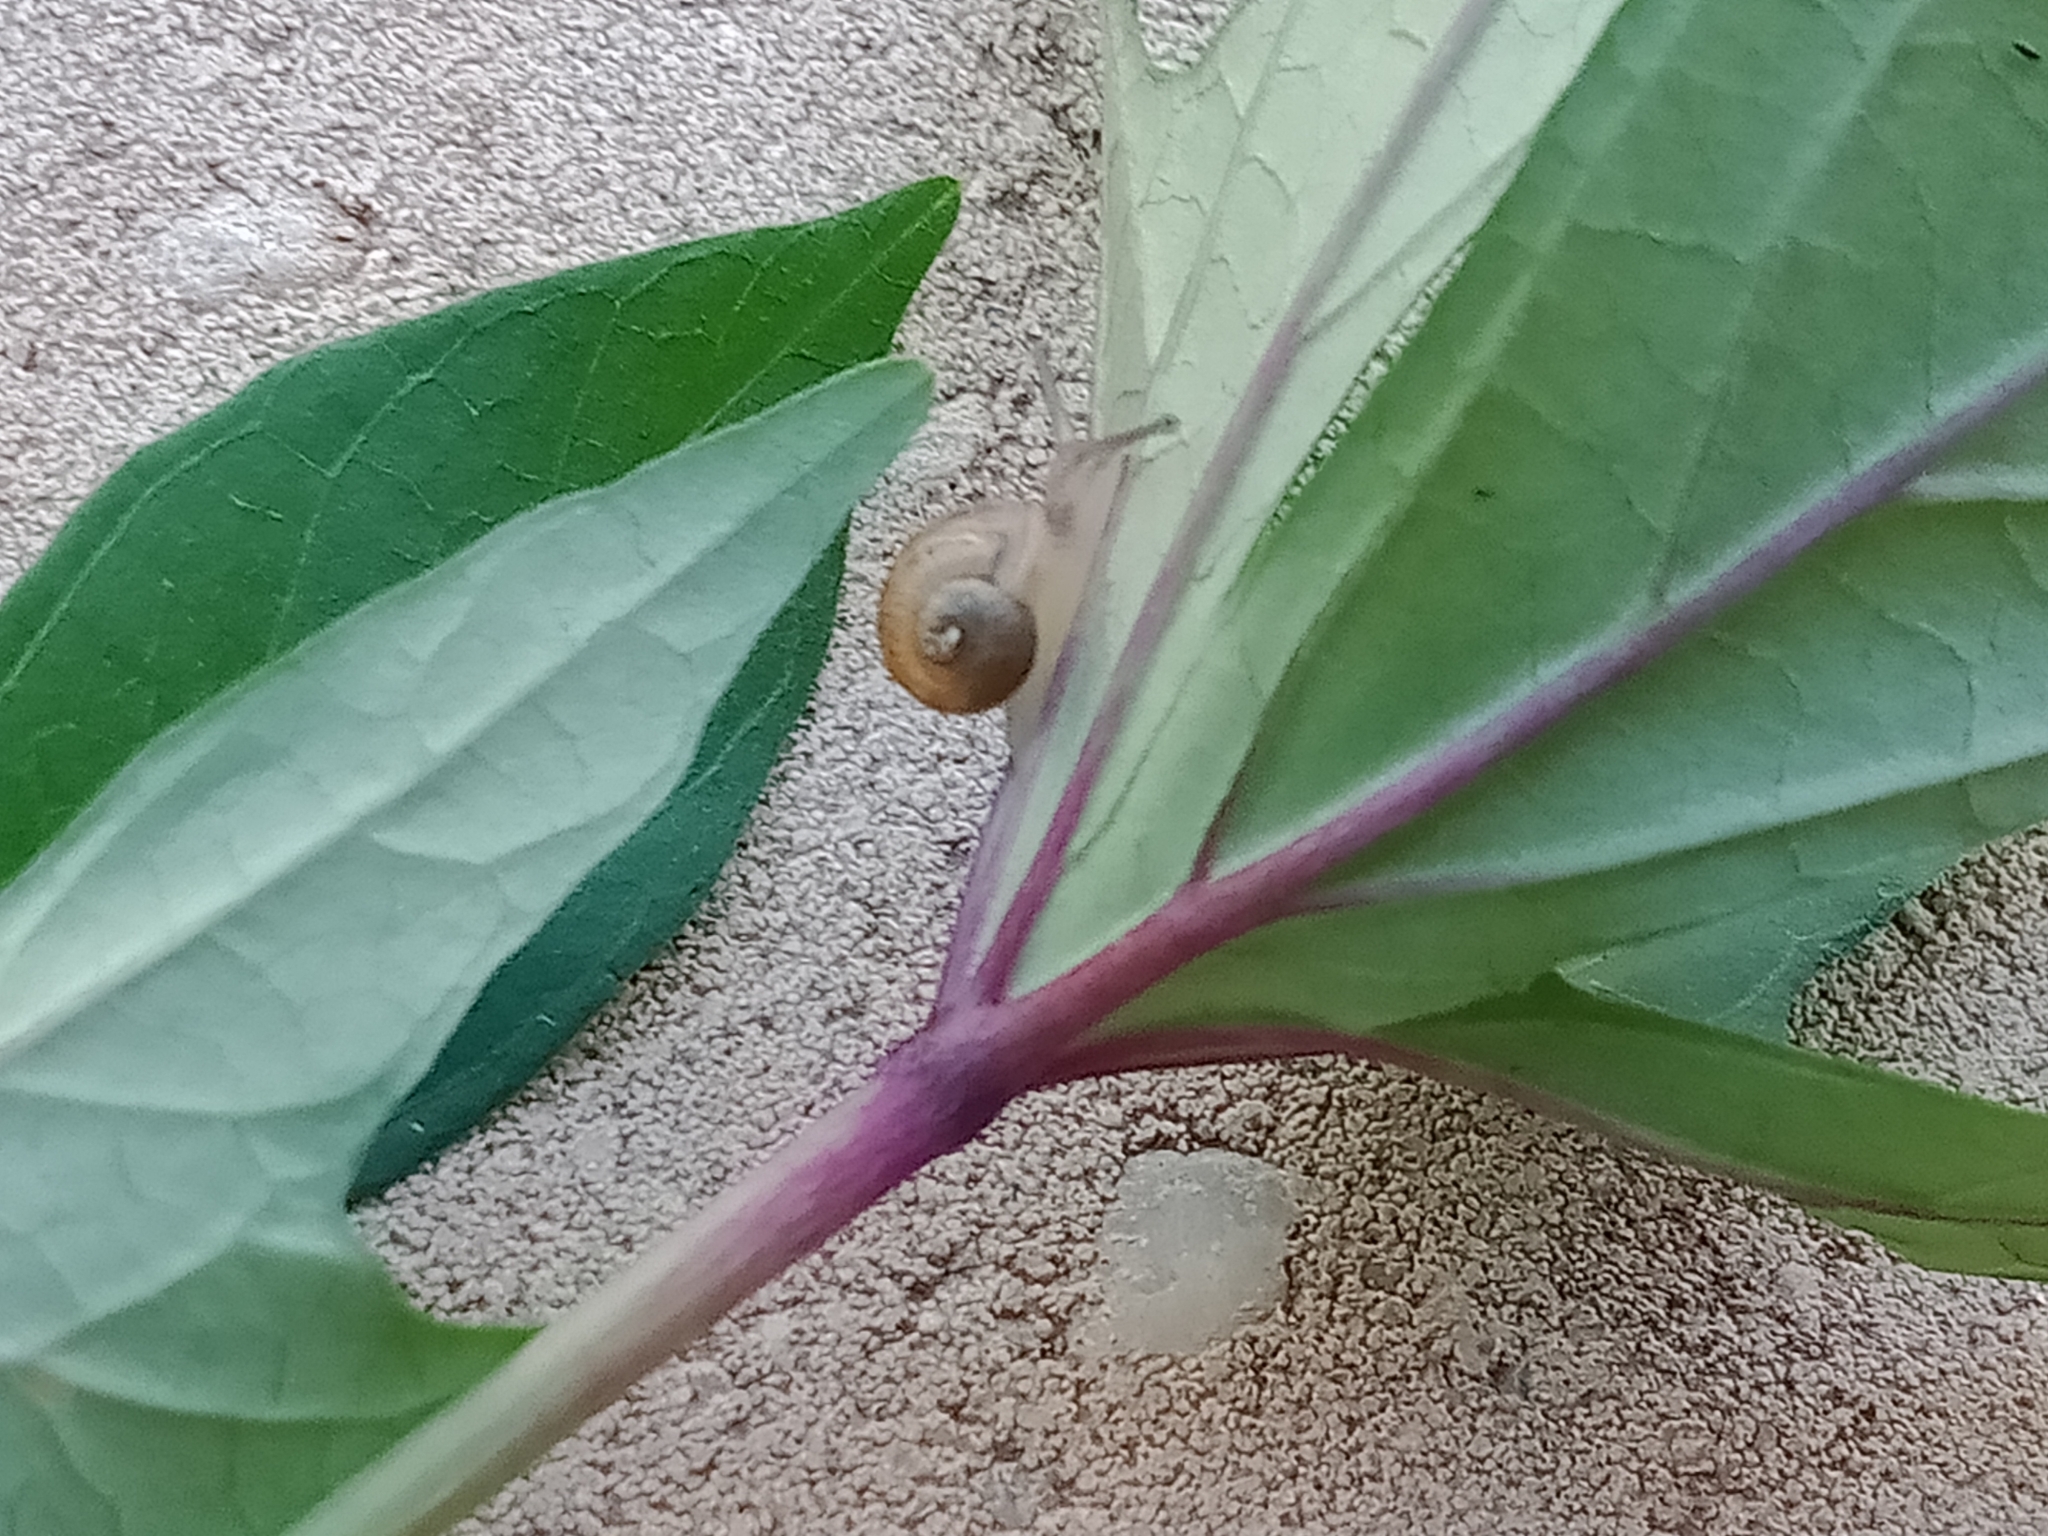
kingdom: Animalia
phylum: Mollusca
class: Gastropoda
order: Stylommatophora
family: Helicidae
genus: Cornu
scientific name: Cornu aspersum
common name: Brown garden snail
